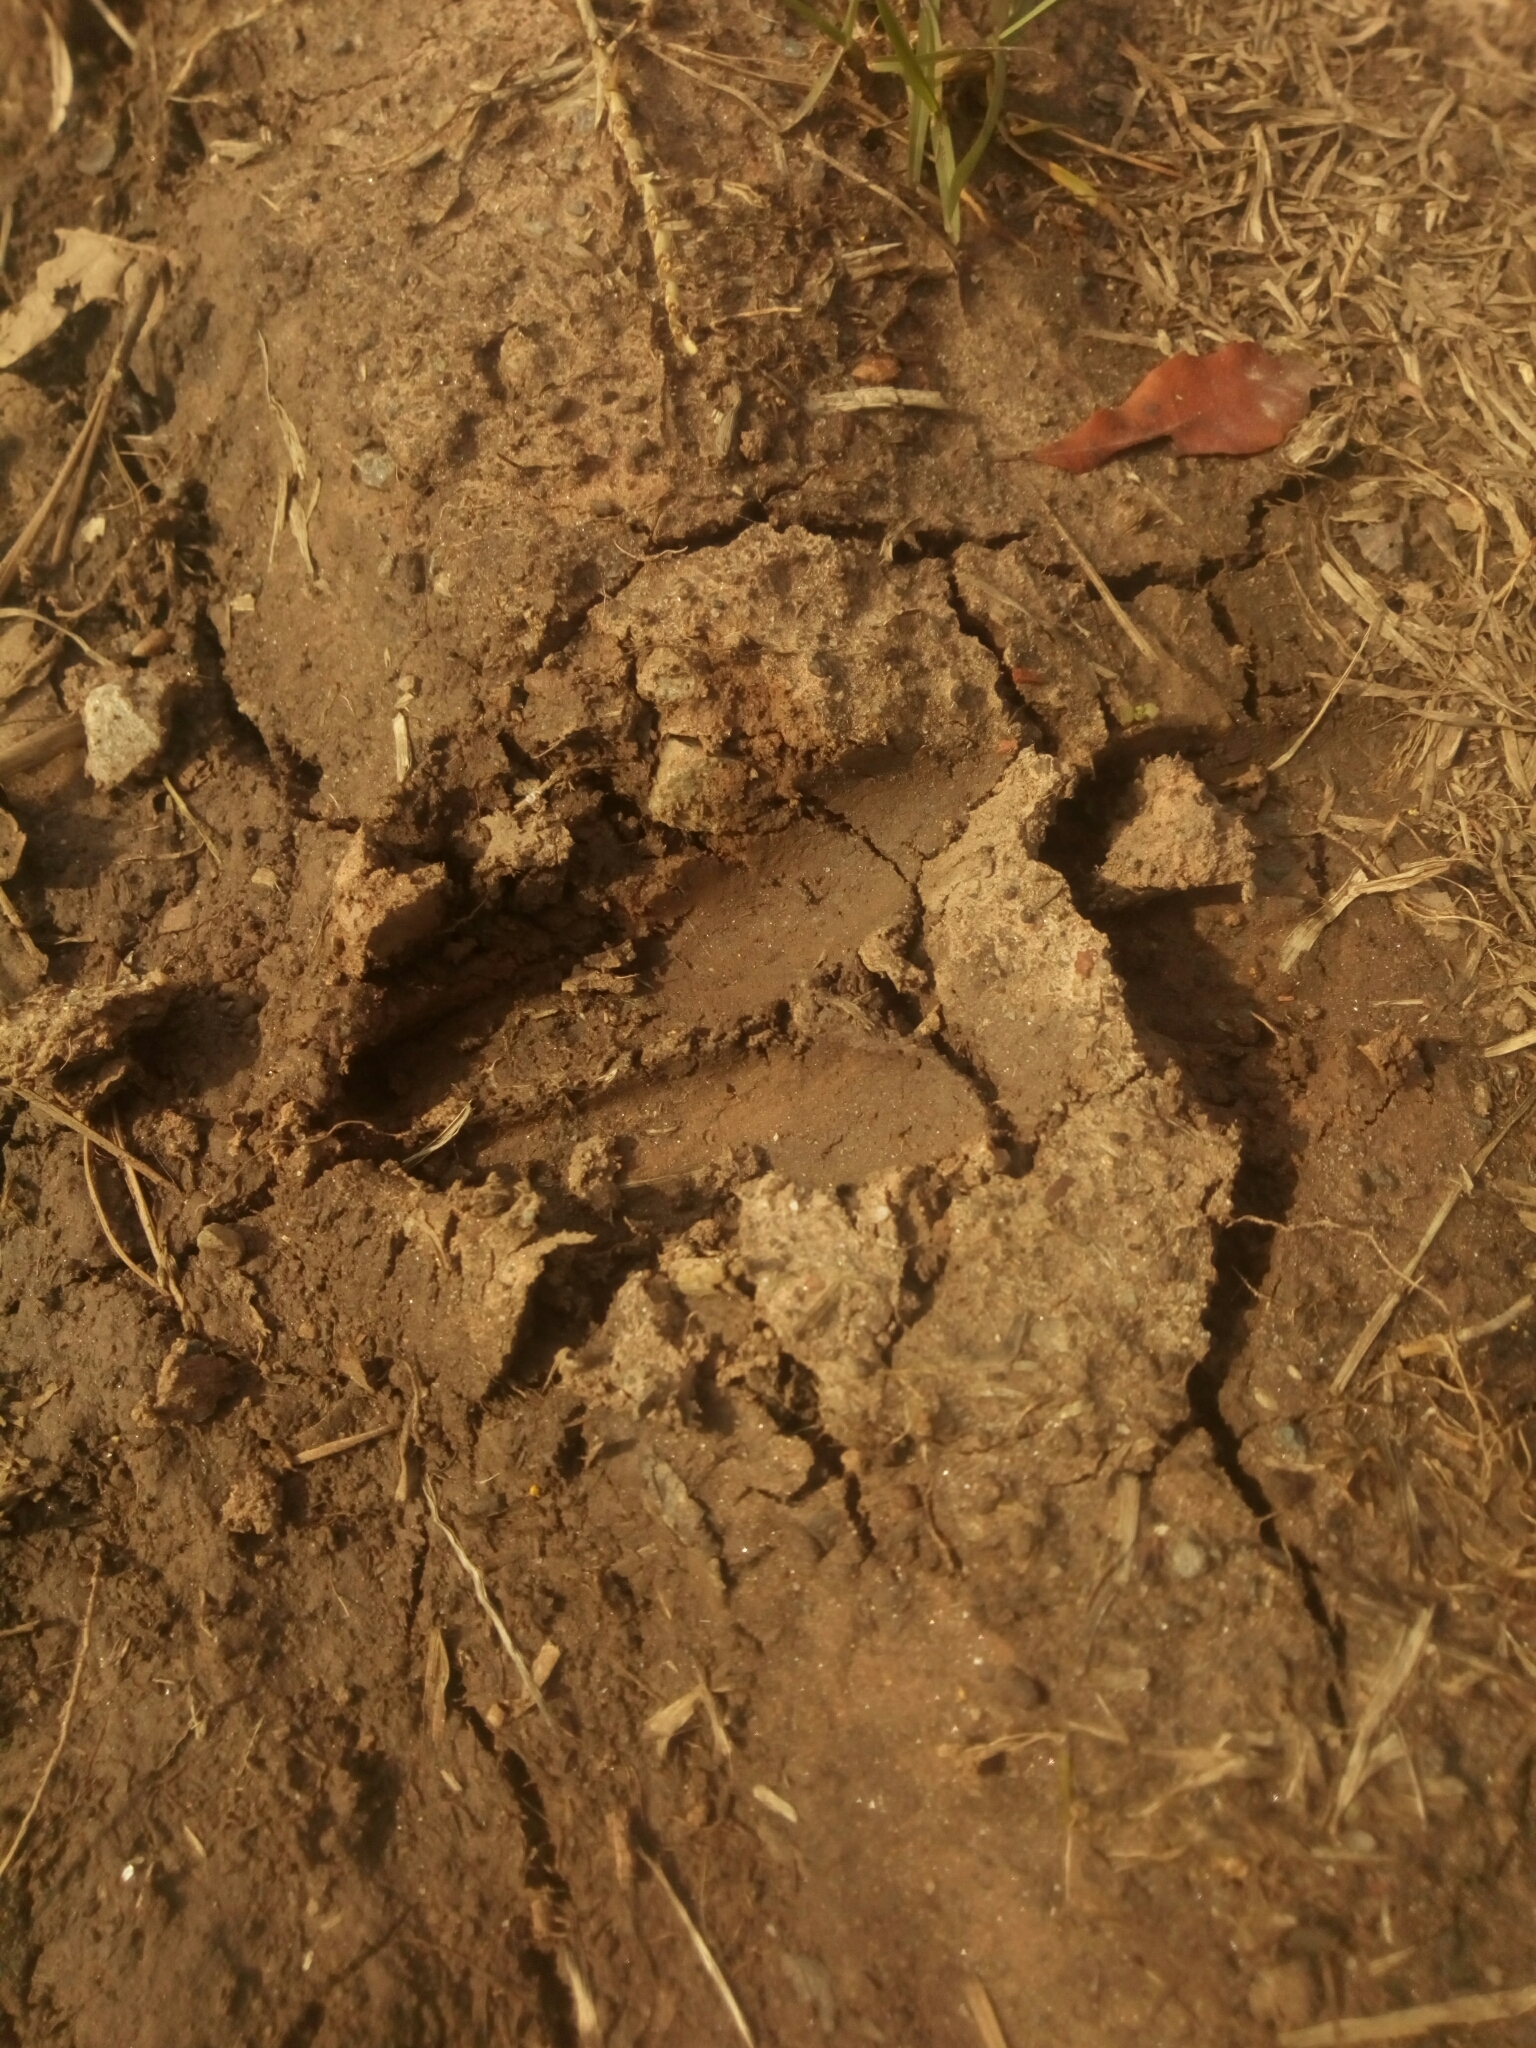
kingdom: Animalia
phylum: Chordata
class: Mammalia
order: Artiodactyla
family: Cervidae
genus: Odocoileus
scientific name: Odocoileus virginianus
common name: White-tailed deer
